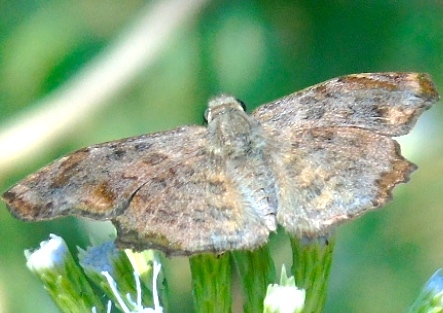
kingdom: Animalia
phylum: Arthropoda
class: Insecta
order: Lepidoptera
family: Hesperiidae
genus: Antigonus
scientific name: Antigonus erosus
